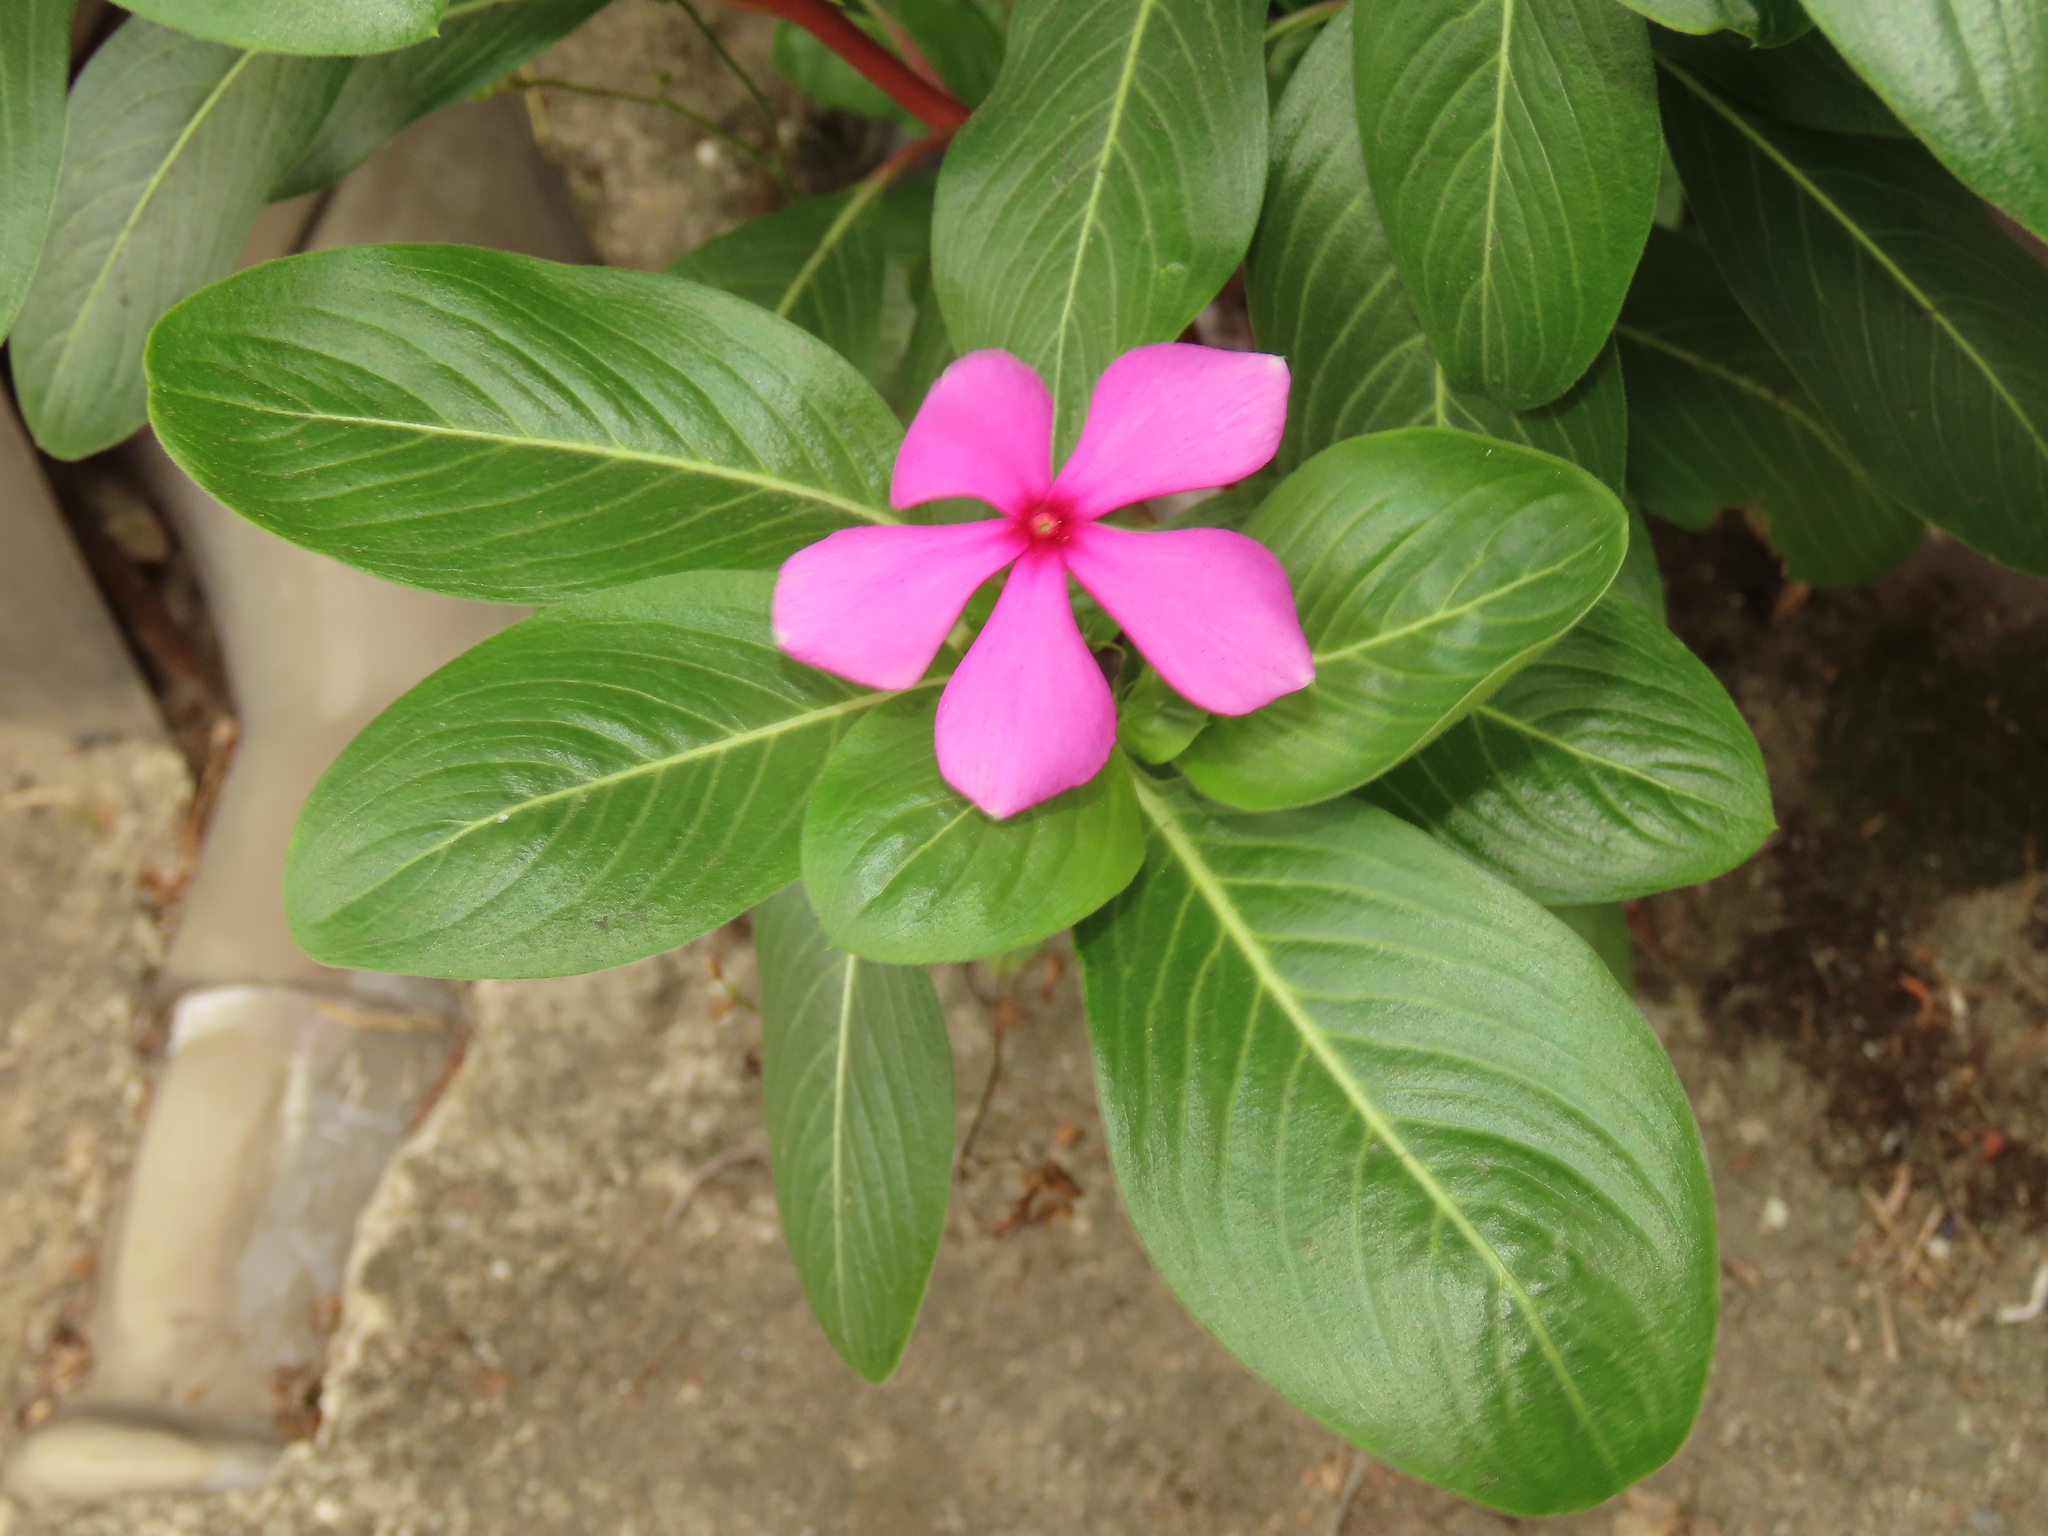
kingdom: Plantae
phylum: Tracheophyta
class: Magnoliopsida
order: Gentianales
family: Apocynaceae
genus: Catharanthus
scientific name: Catharanthus roseus
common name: Madagascar periwinkle
